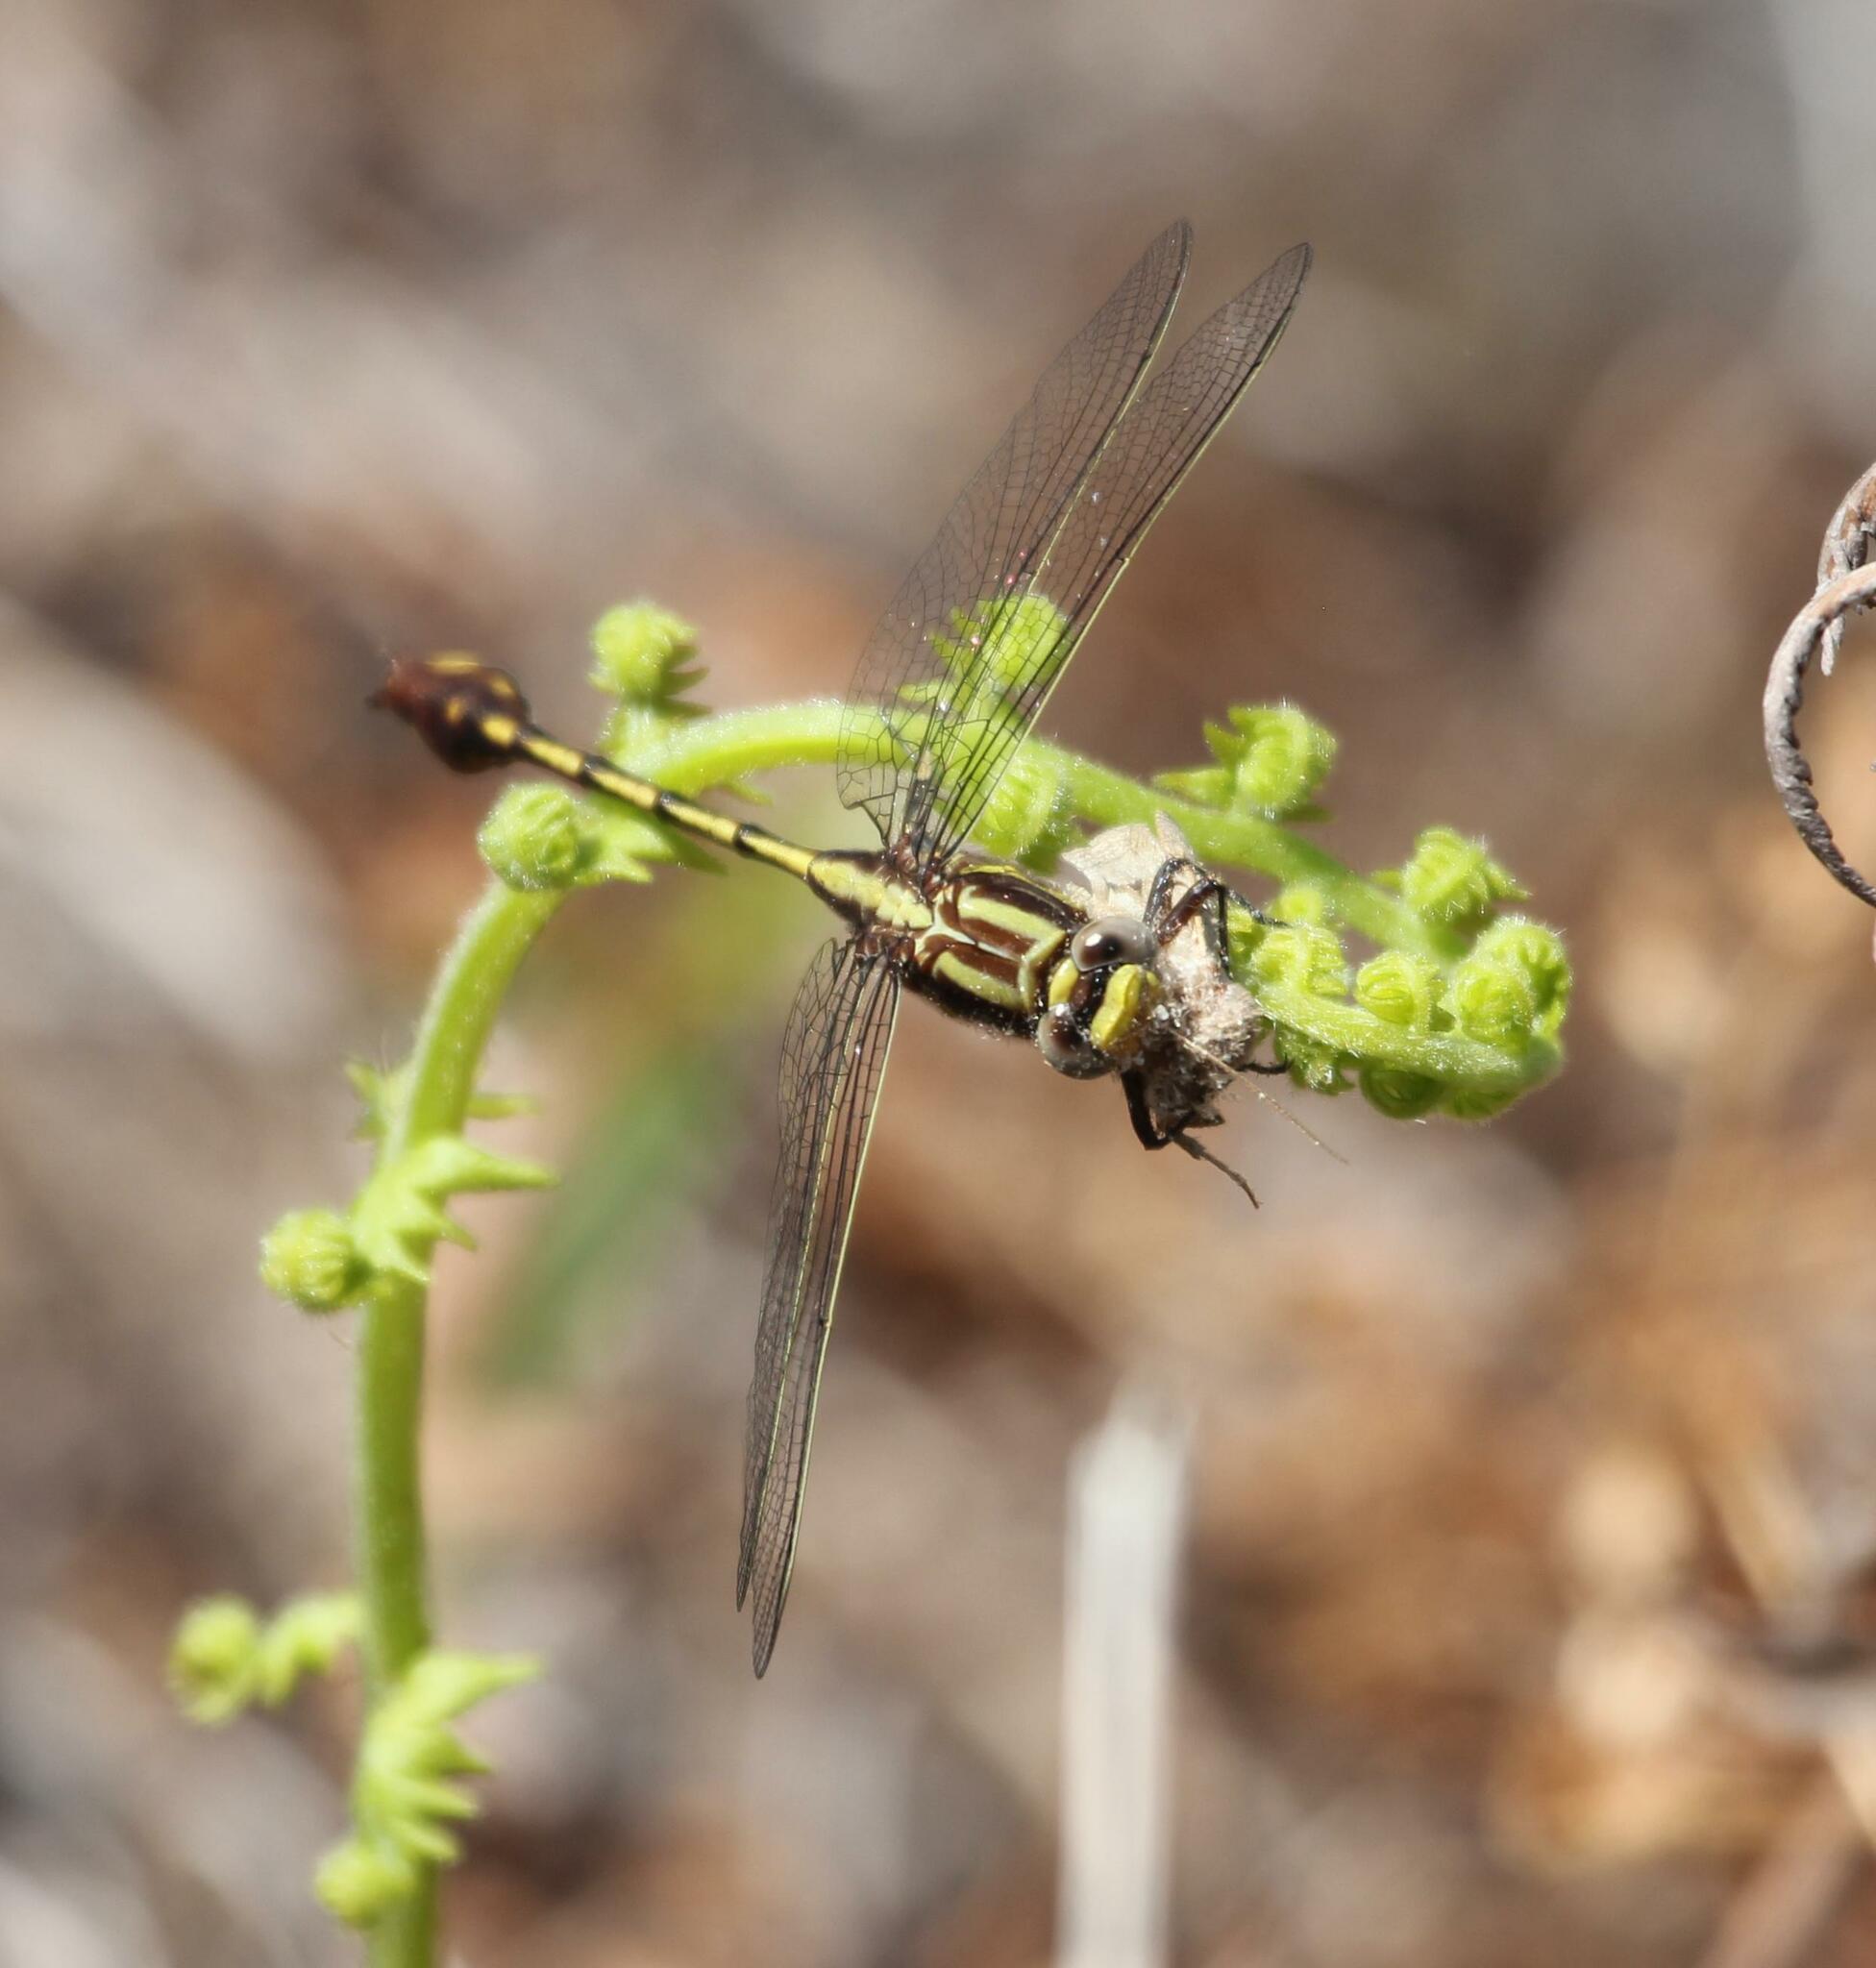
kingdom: Animalia
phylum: Arthropoda
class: Insecta
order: Odonata
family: Gomphidae
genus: Gomphurus
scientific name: Gomphurus hybridus
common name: Cocoa clubtail
